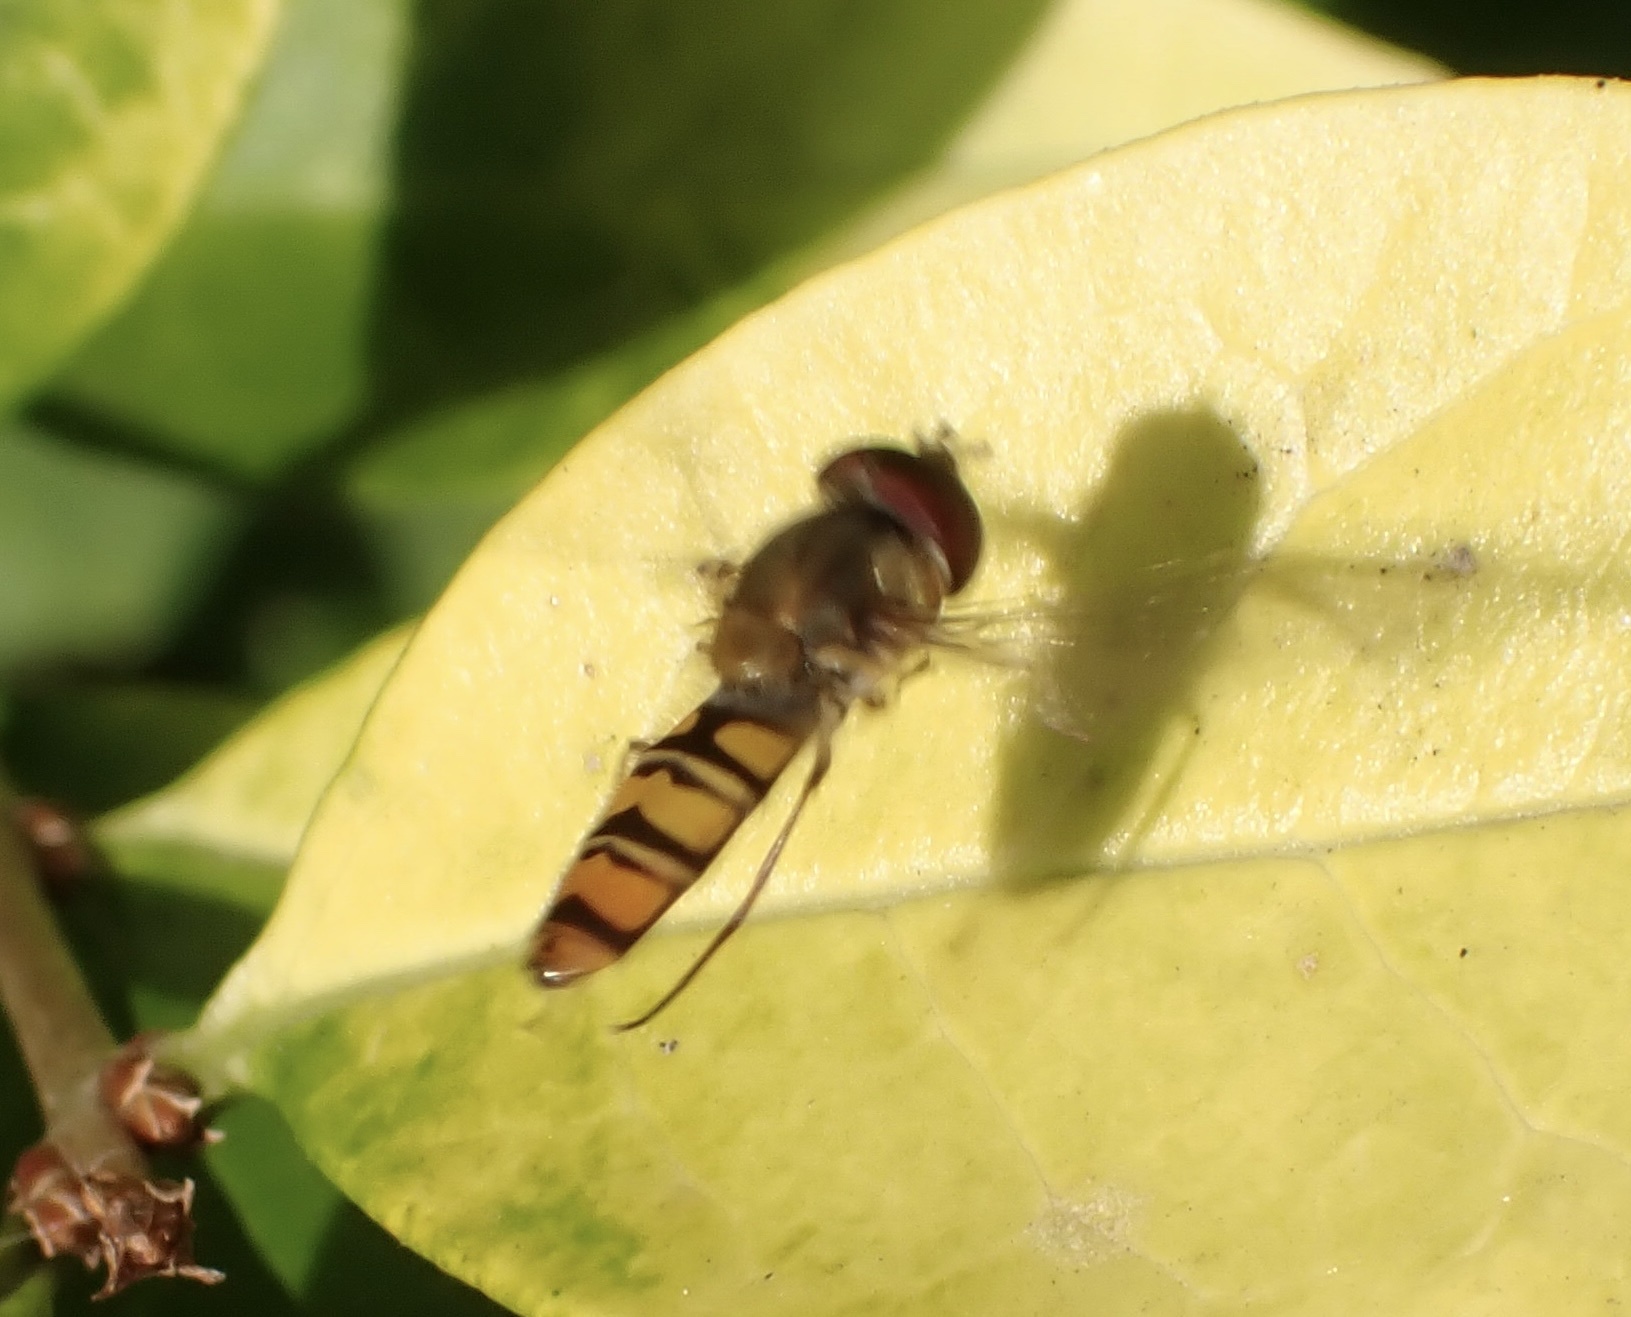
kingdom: Animalia
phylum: Arthropoda
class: Insecta
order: Diptera
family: Syrphidae
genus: Episyrphus
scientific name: Episyrphus balteatus
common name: Marmalade hoverfly
